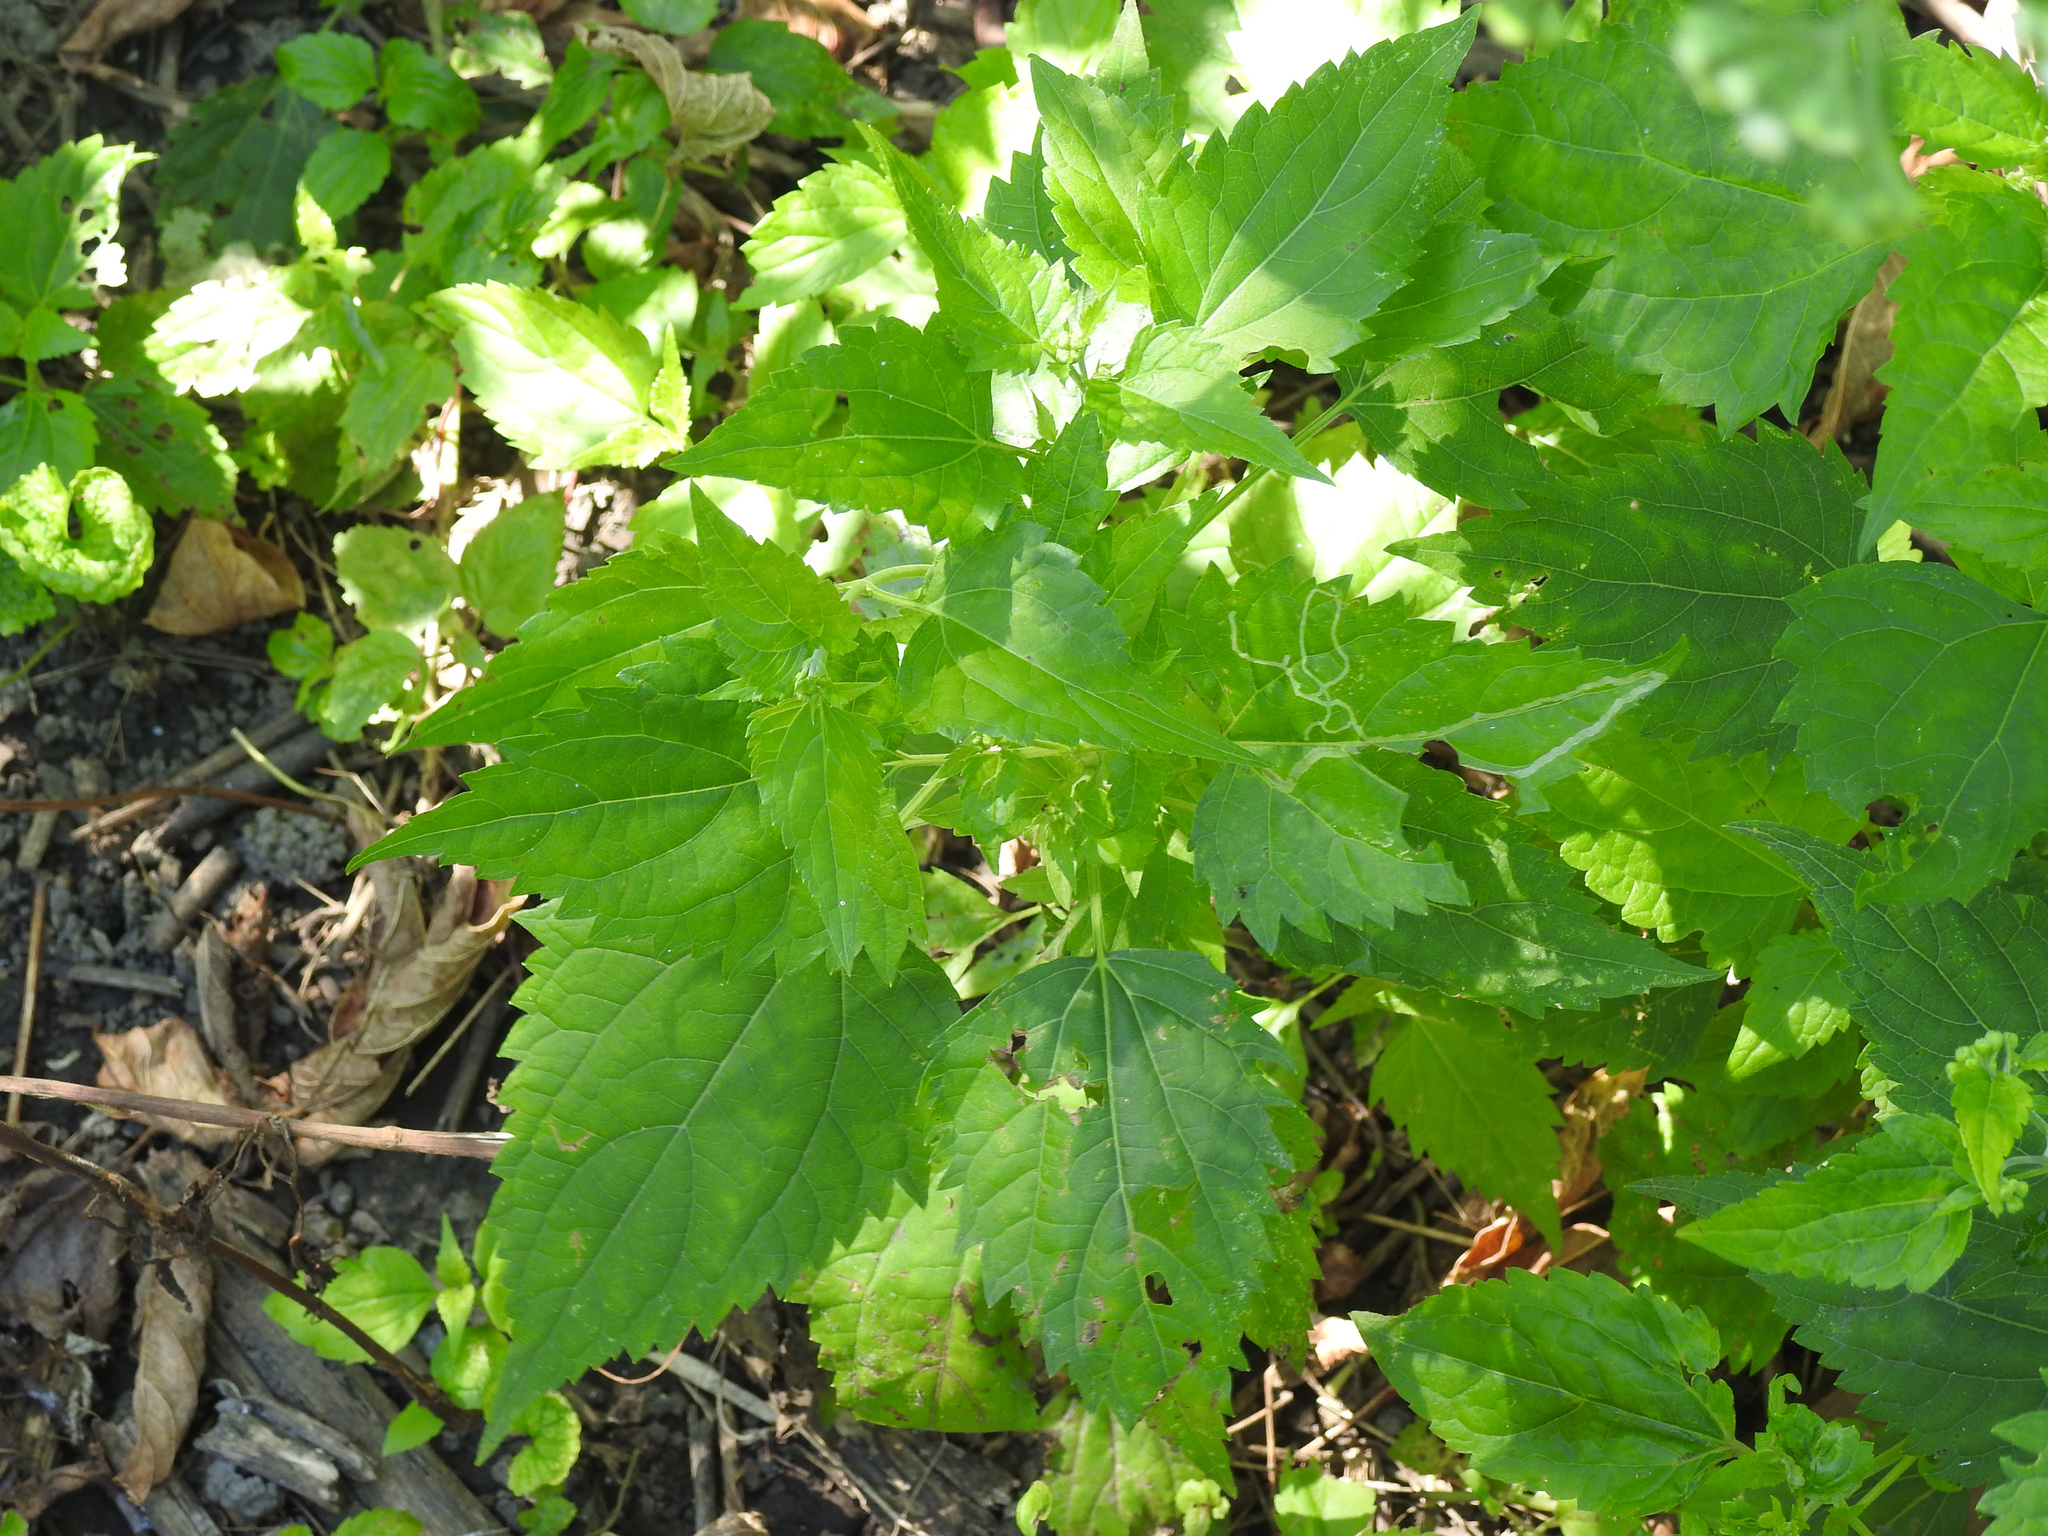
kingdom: Plantae
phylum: Tracheophyta
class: Magnoliopsida
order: Asterales
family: Asteraceae
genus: Ageratina
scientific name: Ageratina altissima
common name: White snakeroot
